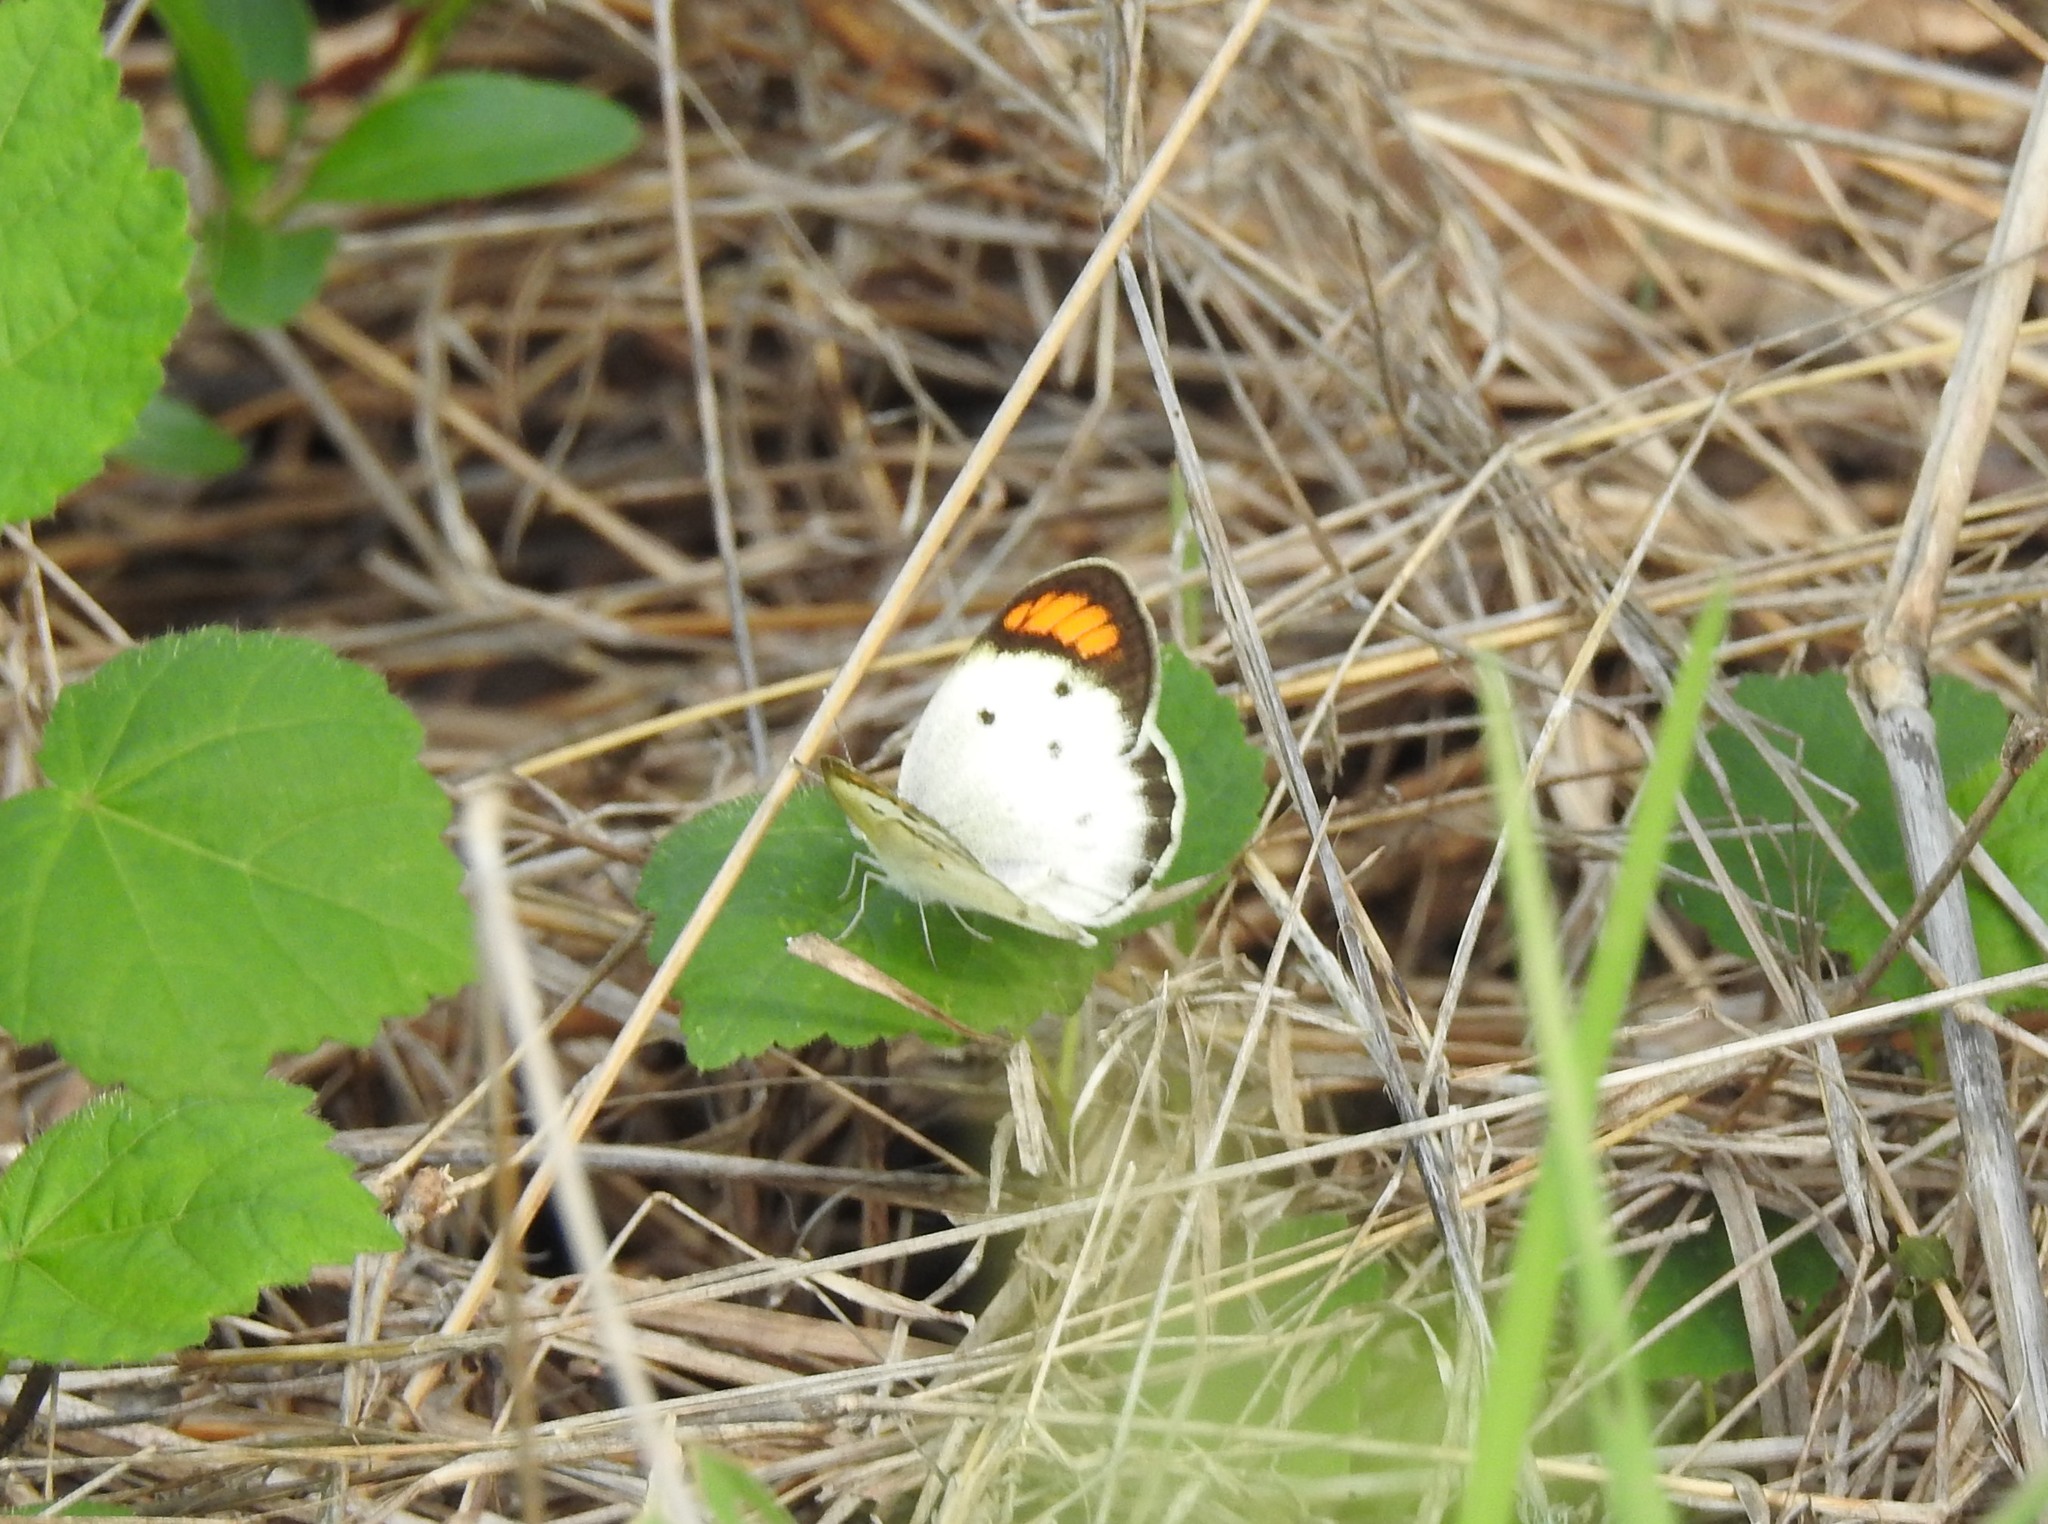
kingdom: Animalia
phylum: Arthropoda
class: Insecta
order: Lepidoptera
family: Pieridae
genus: Colotis
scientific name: Colotis etrida
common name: Little orange tip
